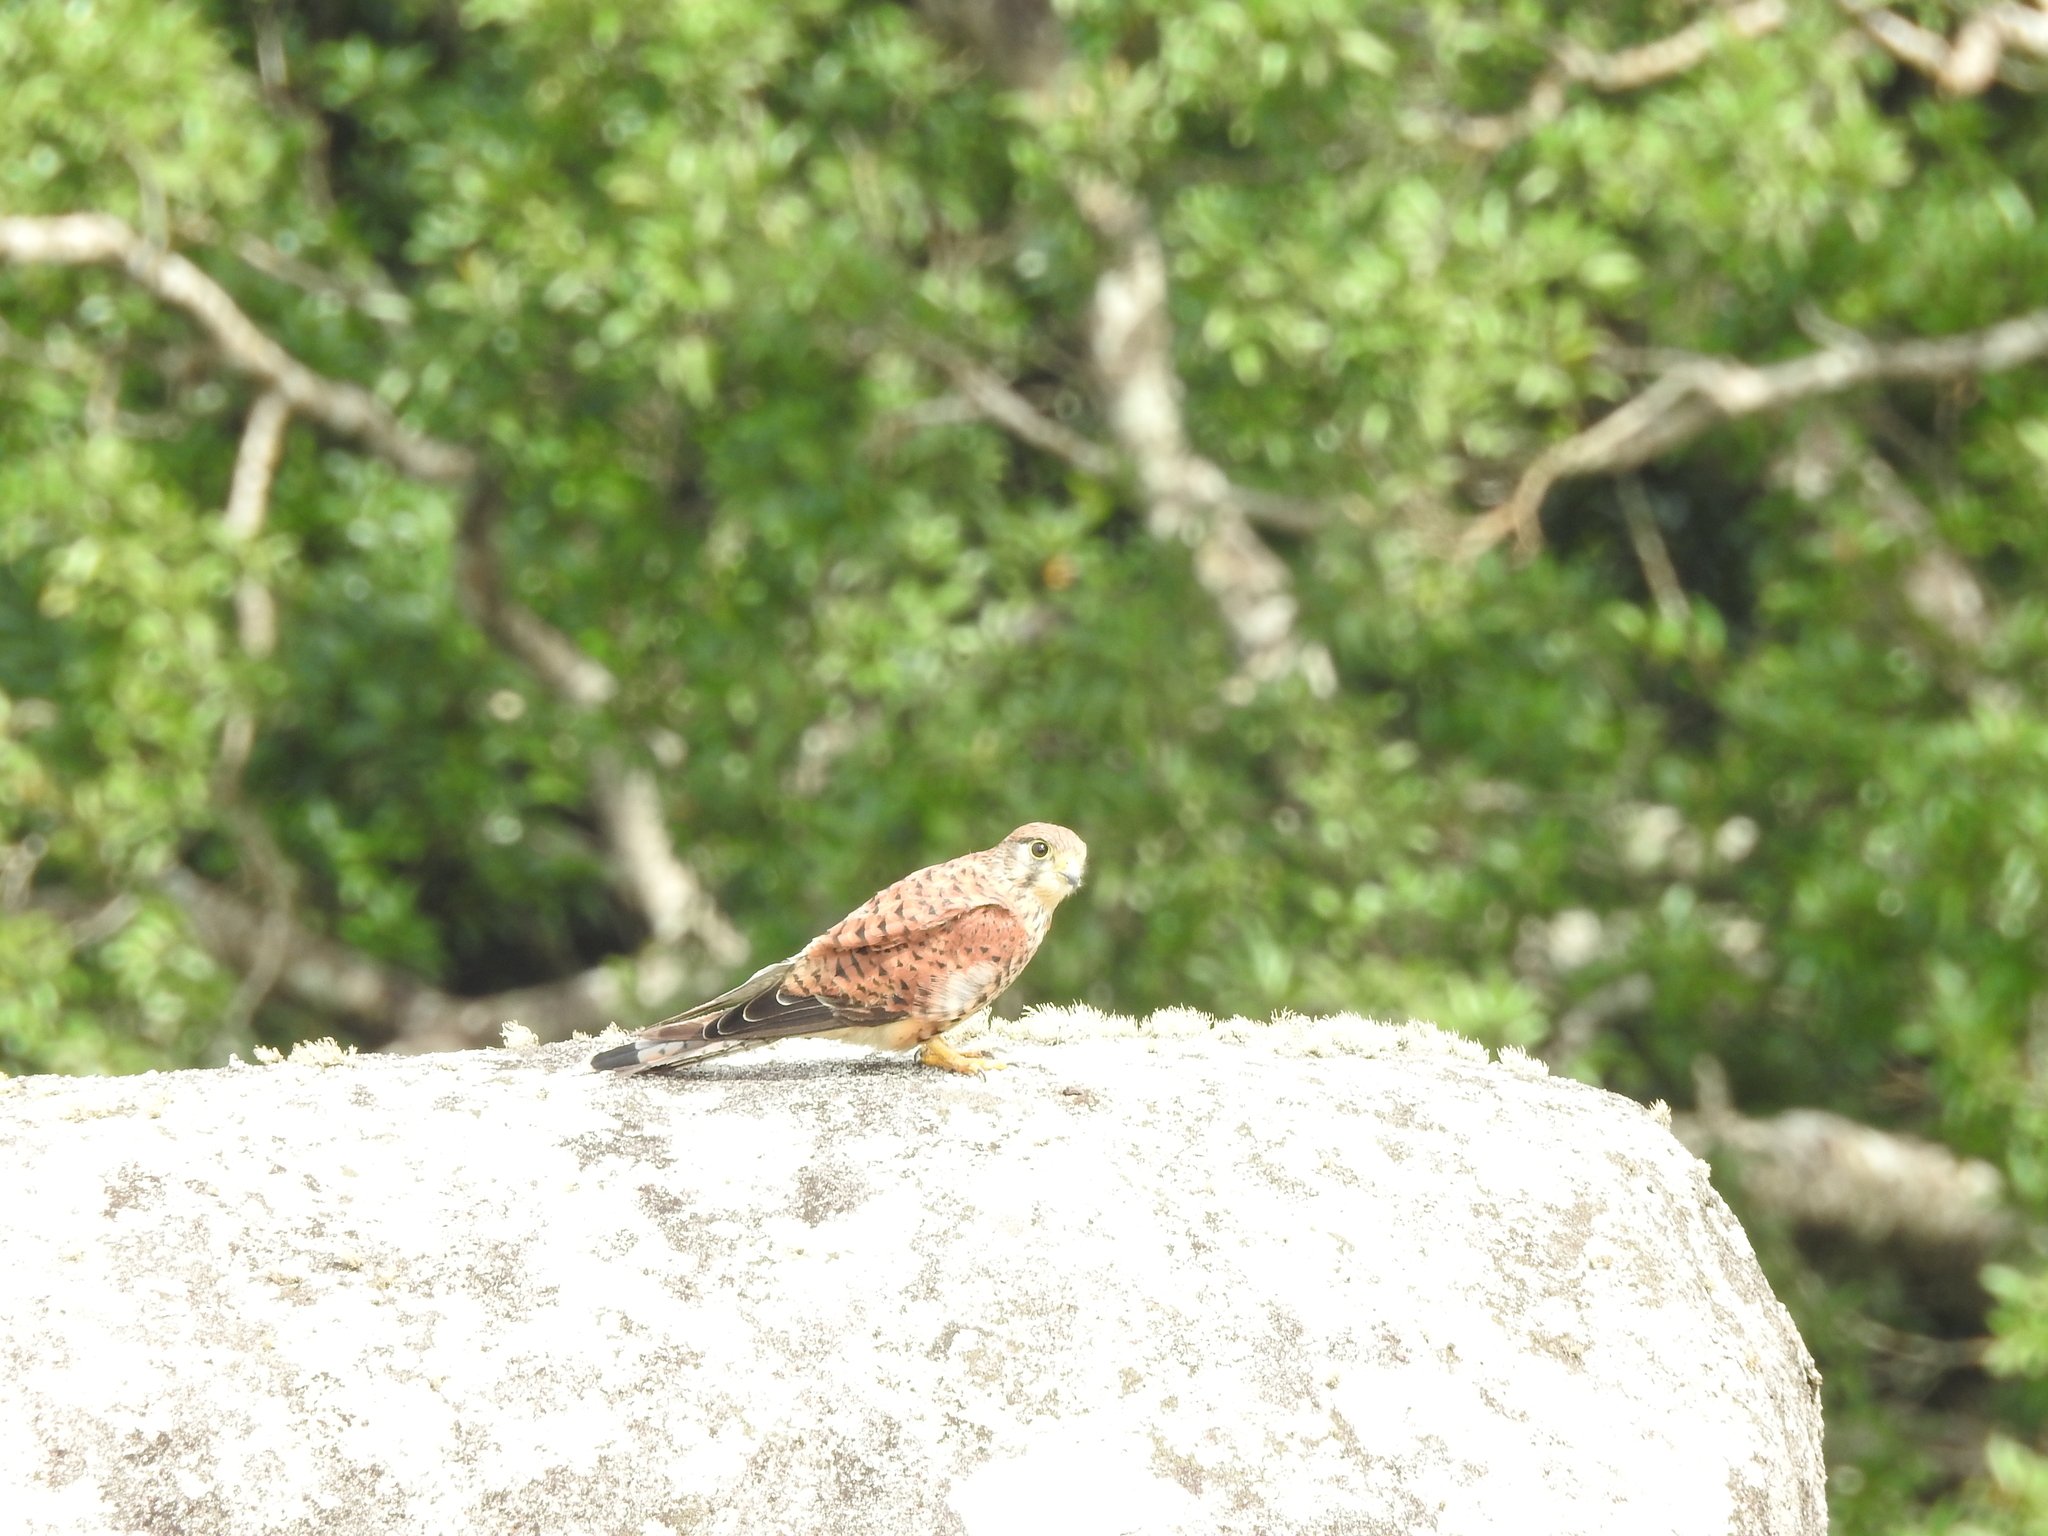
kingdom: Animalia
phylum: Chordata
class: Aves
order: Falconiformes
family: Falconidae
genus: Falco
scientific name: Falco tinnunculus
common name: Common kestrel
